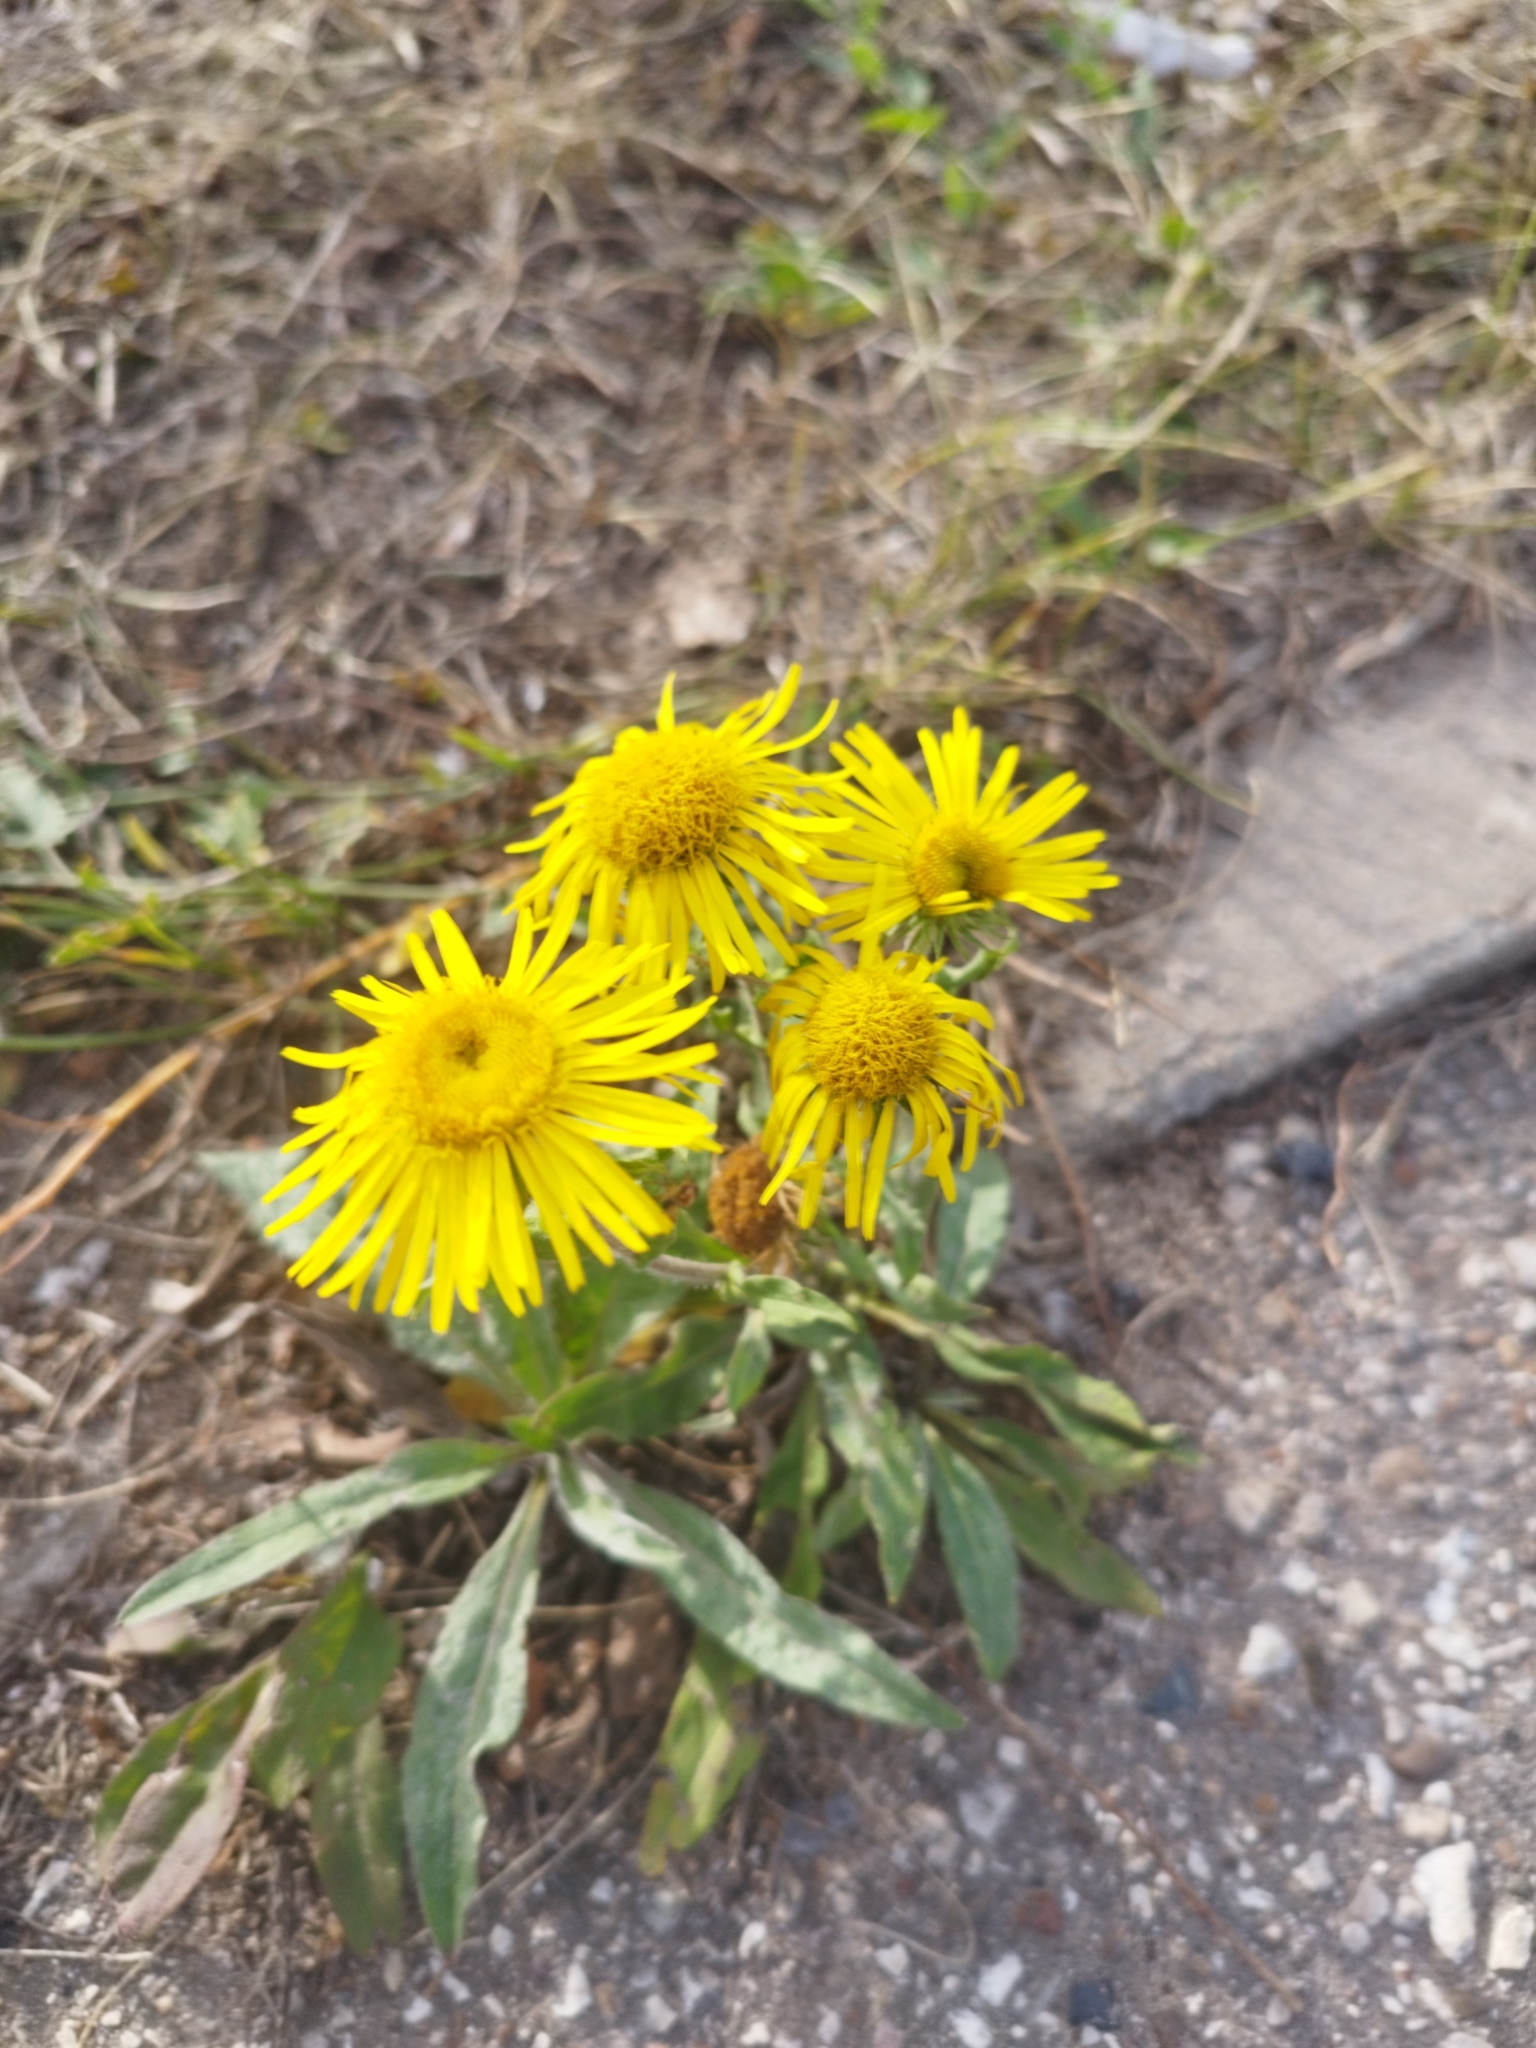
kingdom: Plantae
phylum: Tracheophyta
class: Magnoliopsida
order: Asterales
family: Asteraceae
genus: Pentanema
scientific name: Pentanema britannicum
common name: British elecampane
